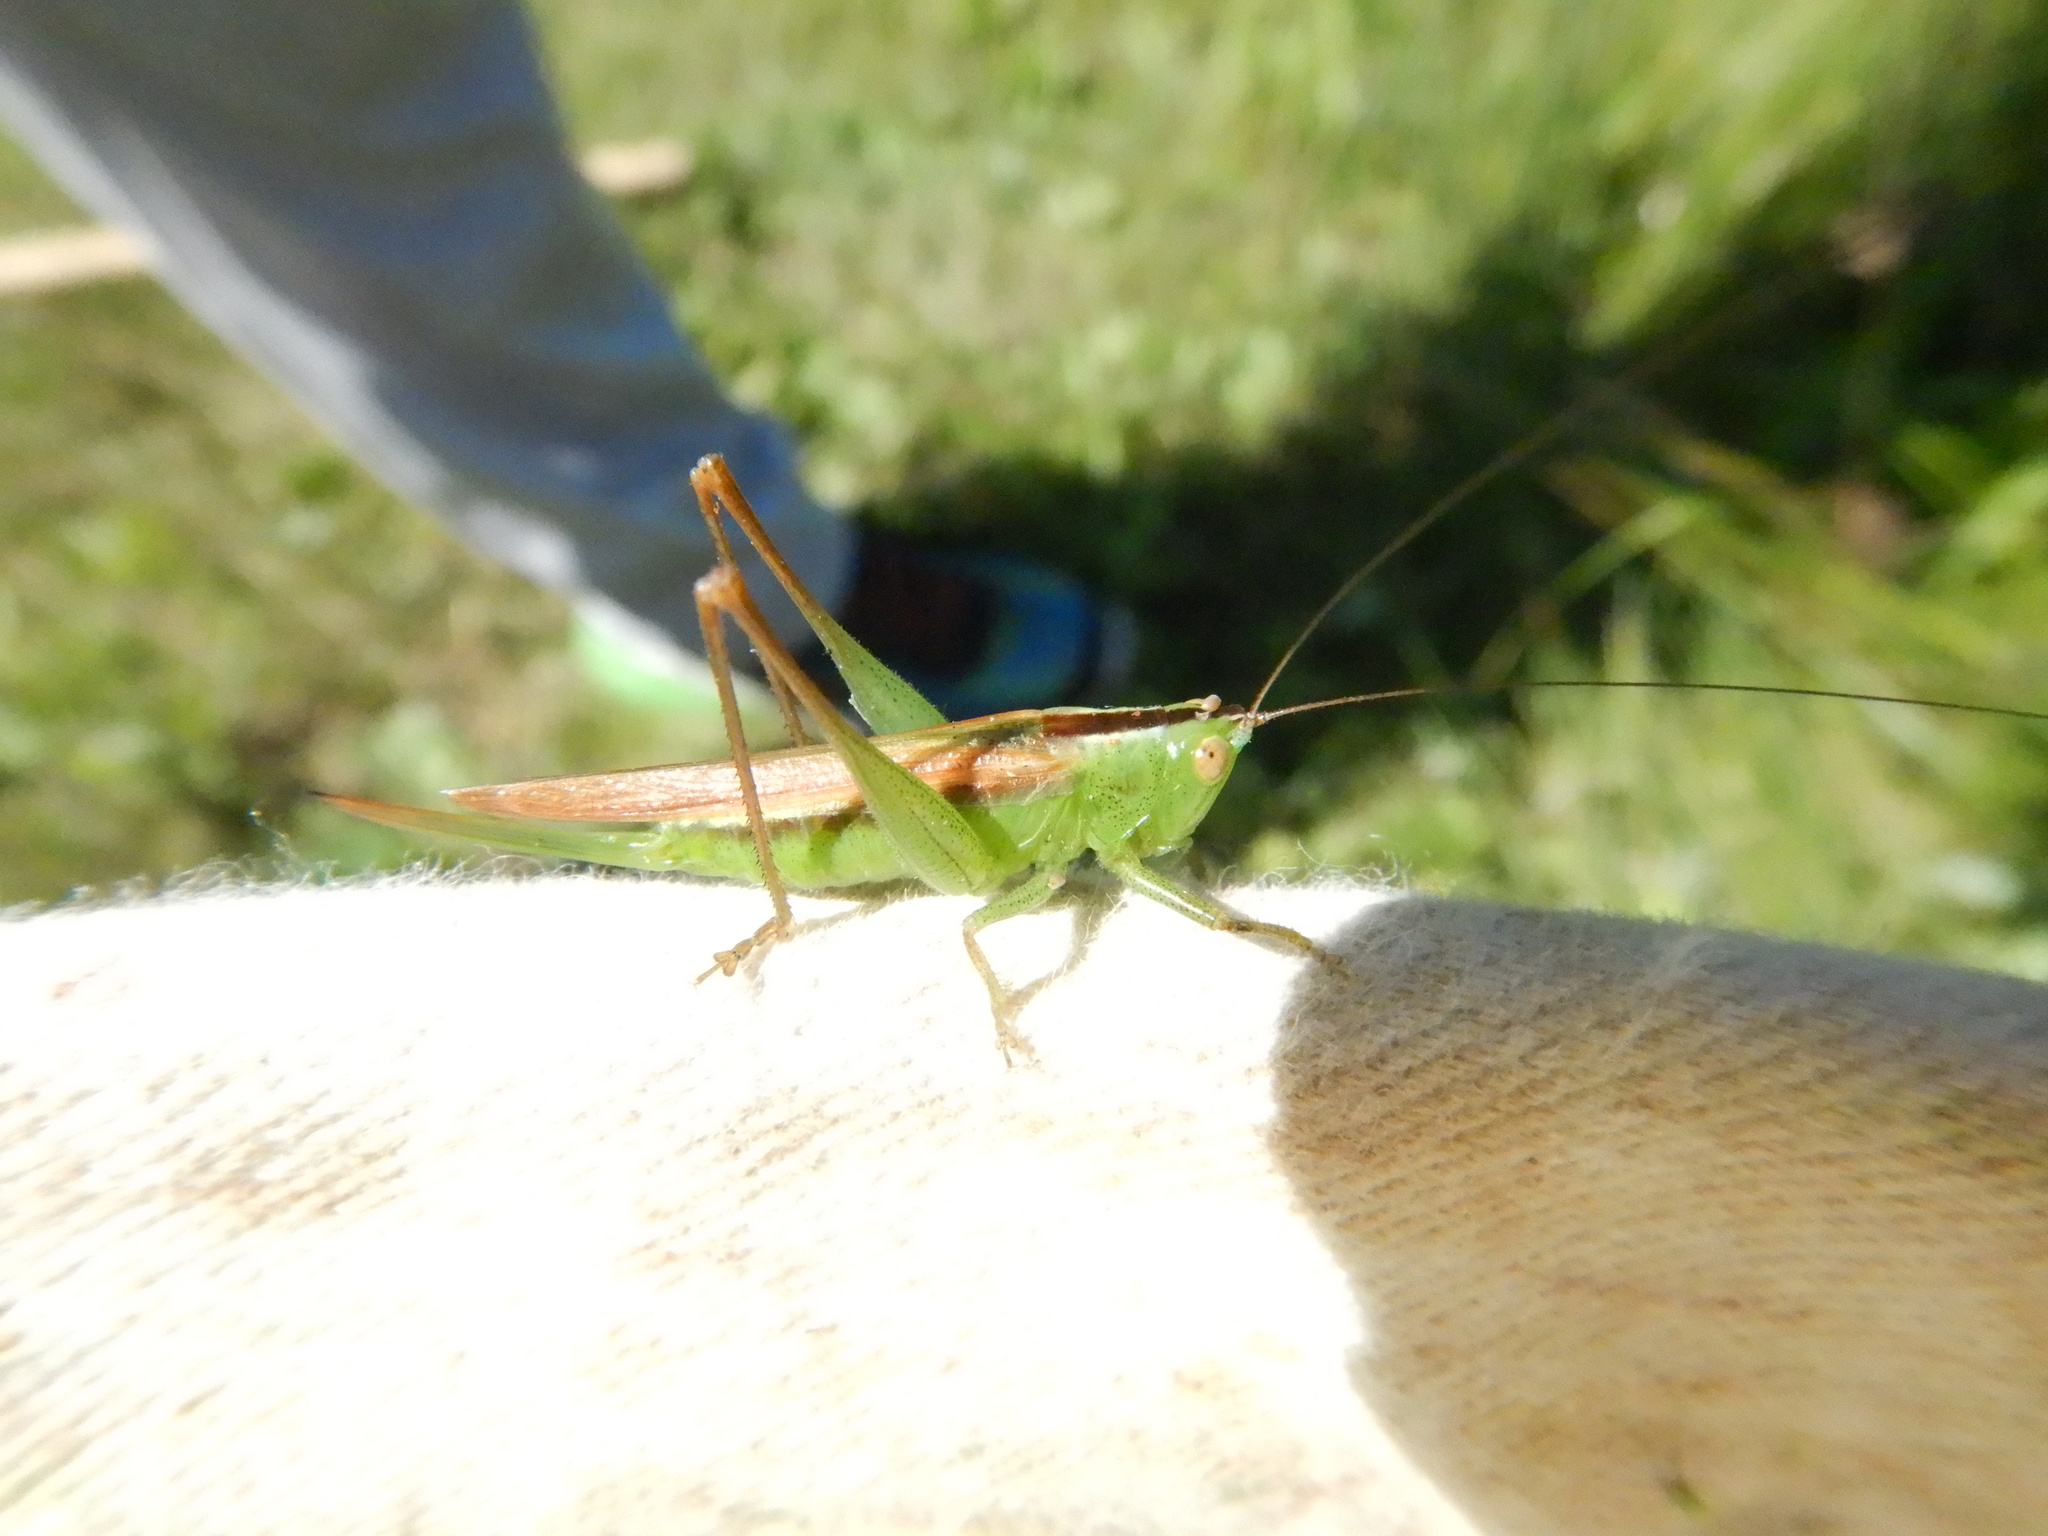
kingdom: Animalia
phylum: Arthropoda
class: Insecta
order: Orthoptera
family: Tettigoniidae
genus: Conocephalus
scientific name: Conocephalus fasciatus
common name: Slender meadow katydid
